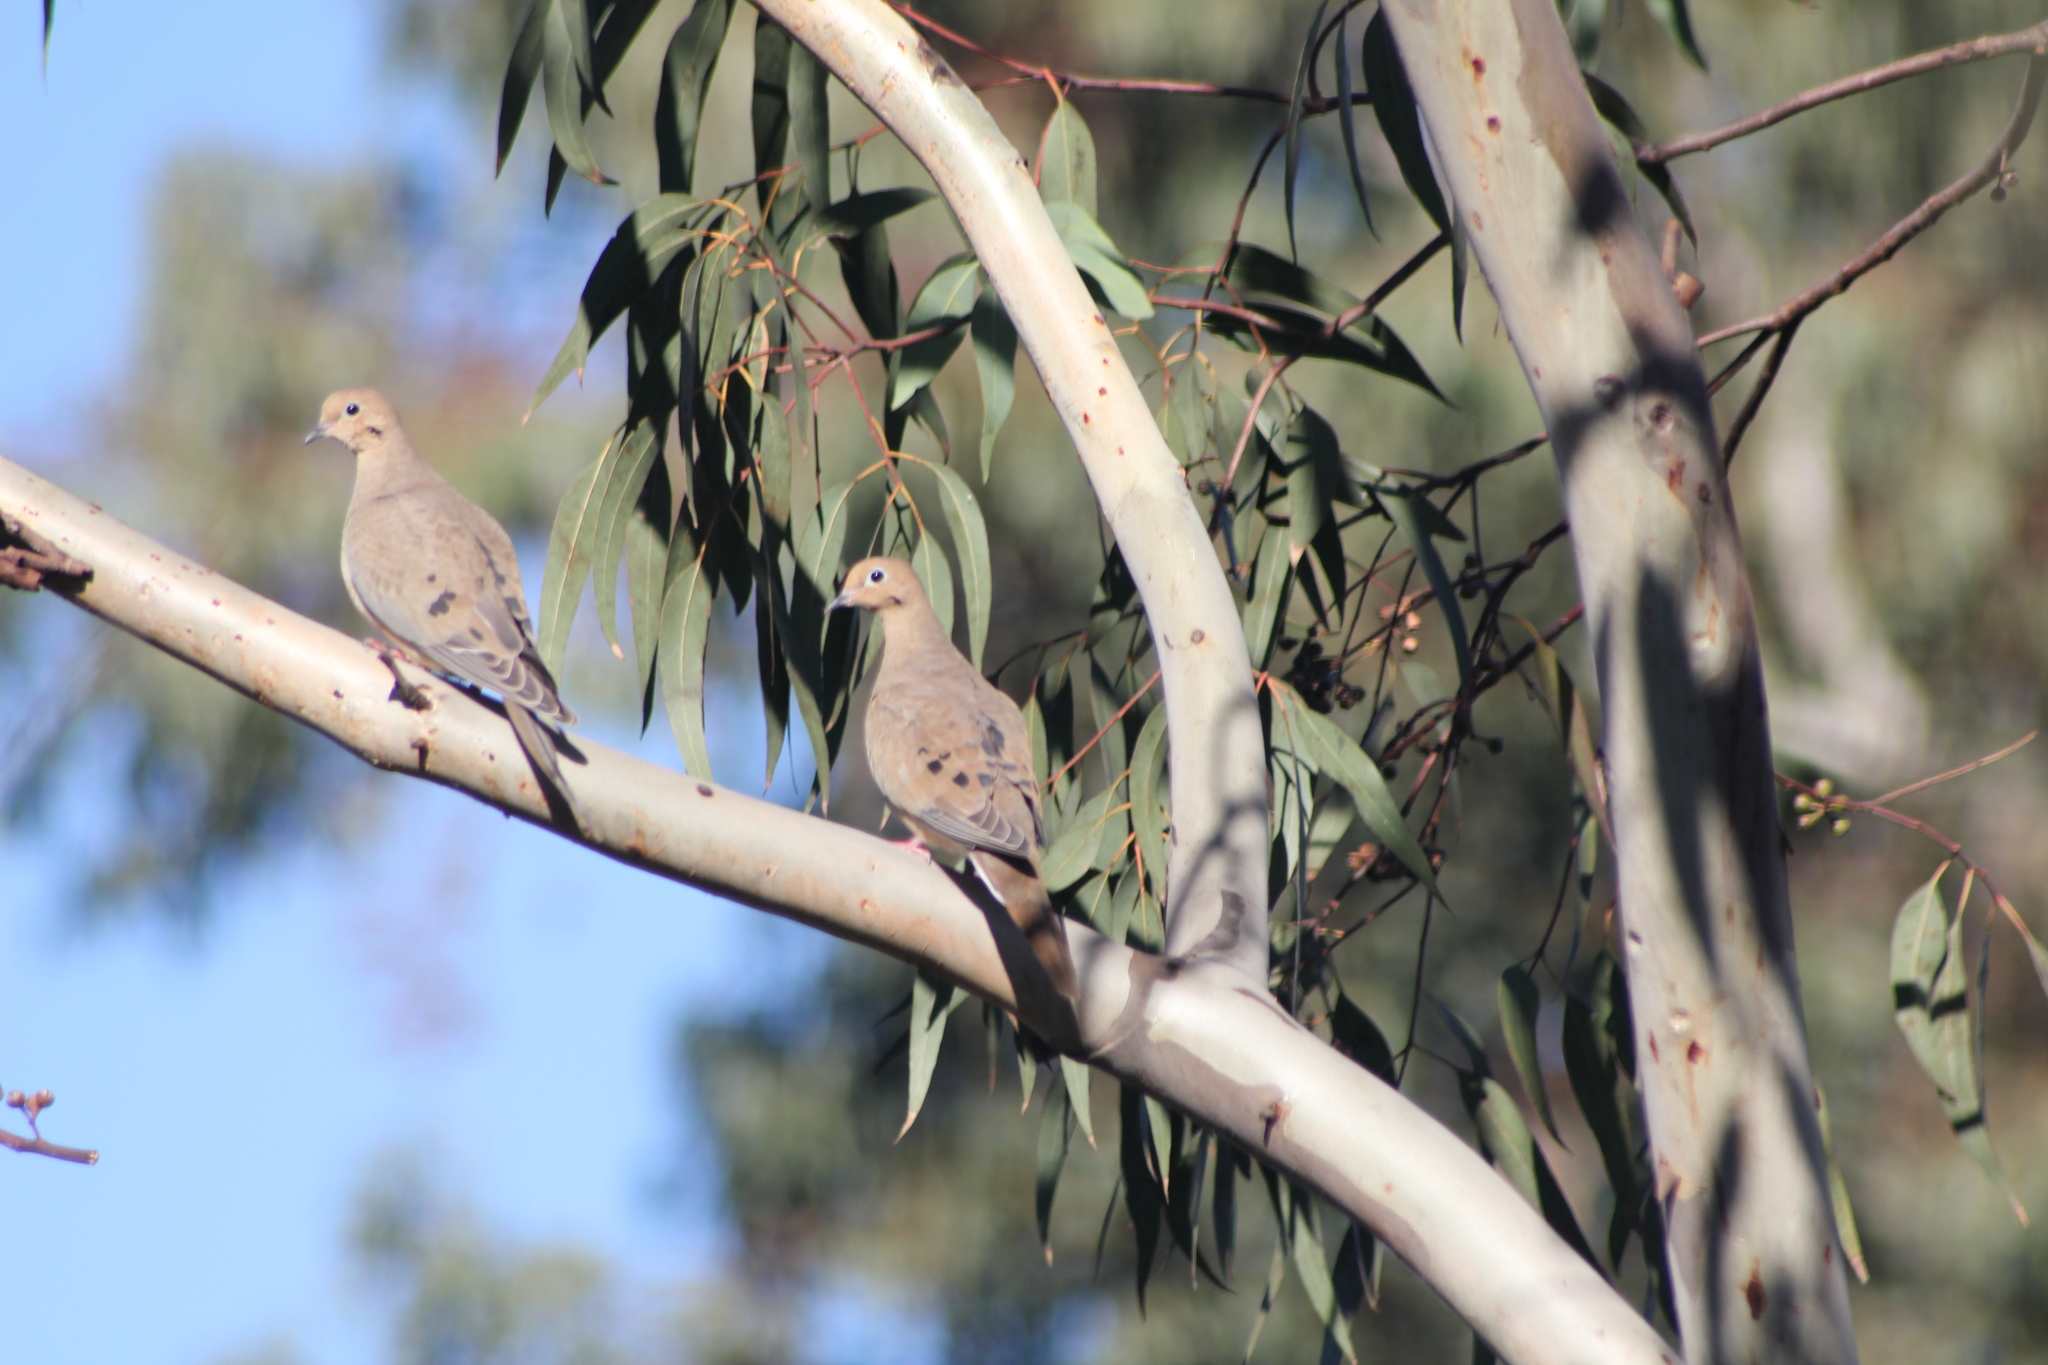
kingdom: Animalia
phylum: Chordata
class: Aves
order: Columbiformes
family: Columbidae
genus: Zenaida
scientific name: Zenaida macroura
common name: Mourning dove
